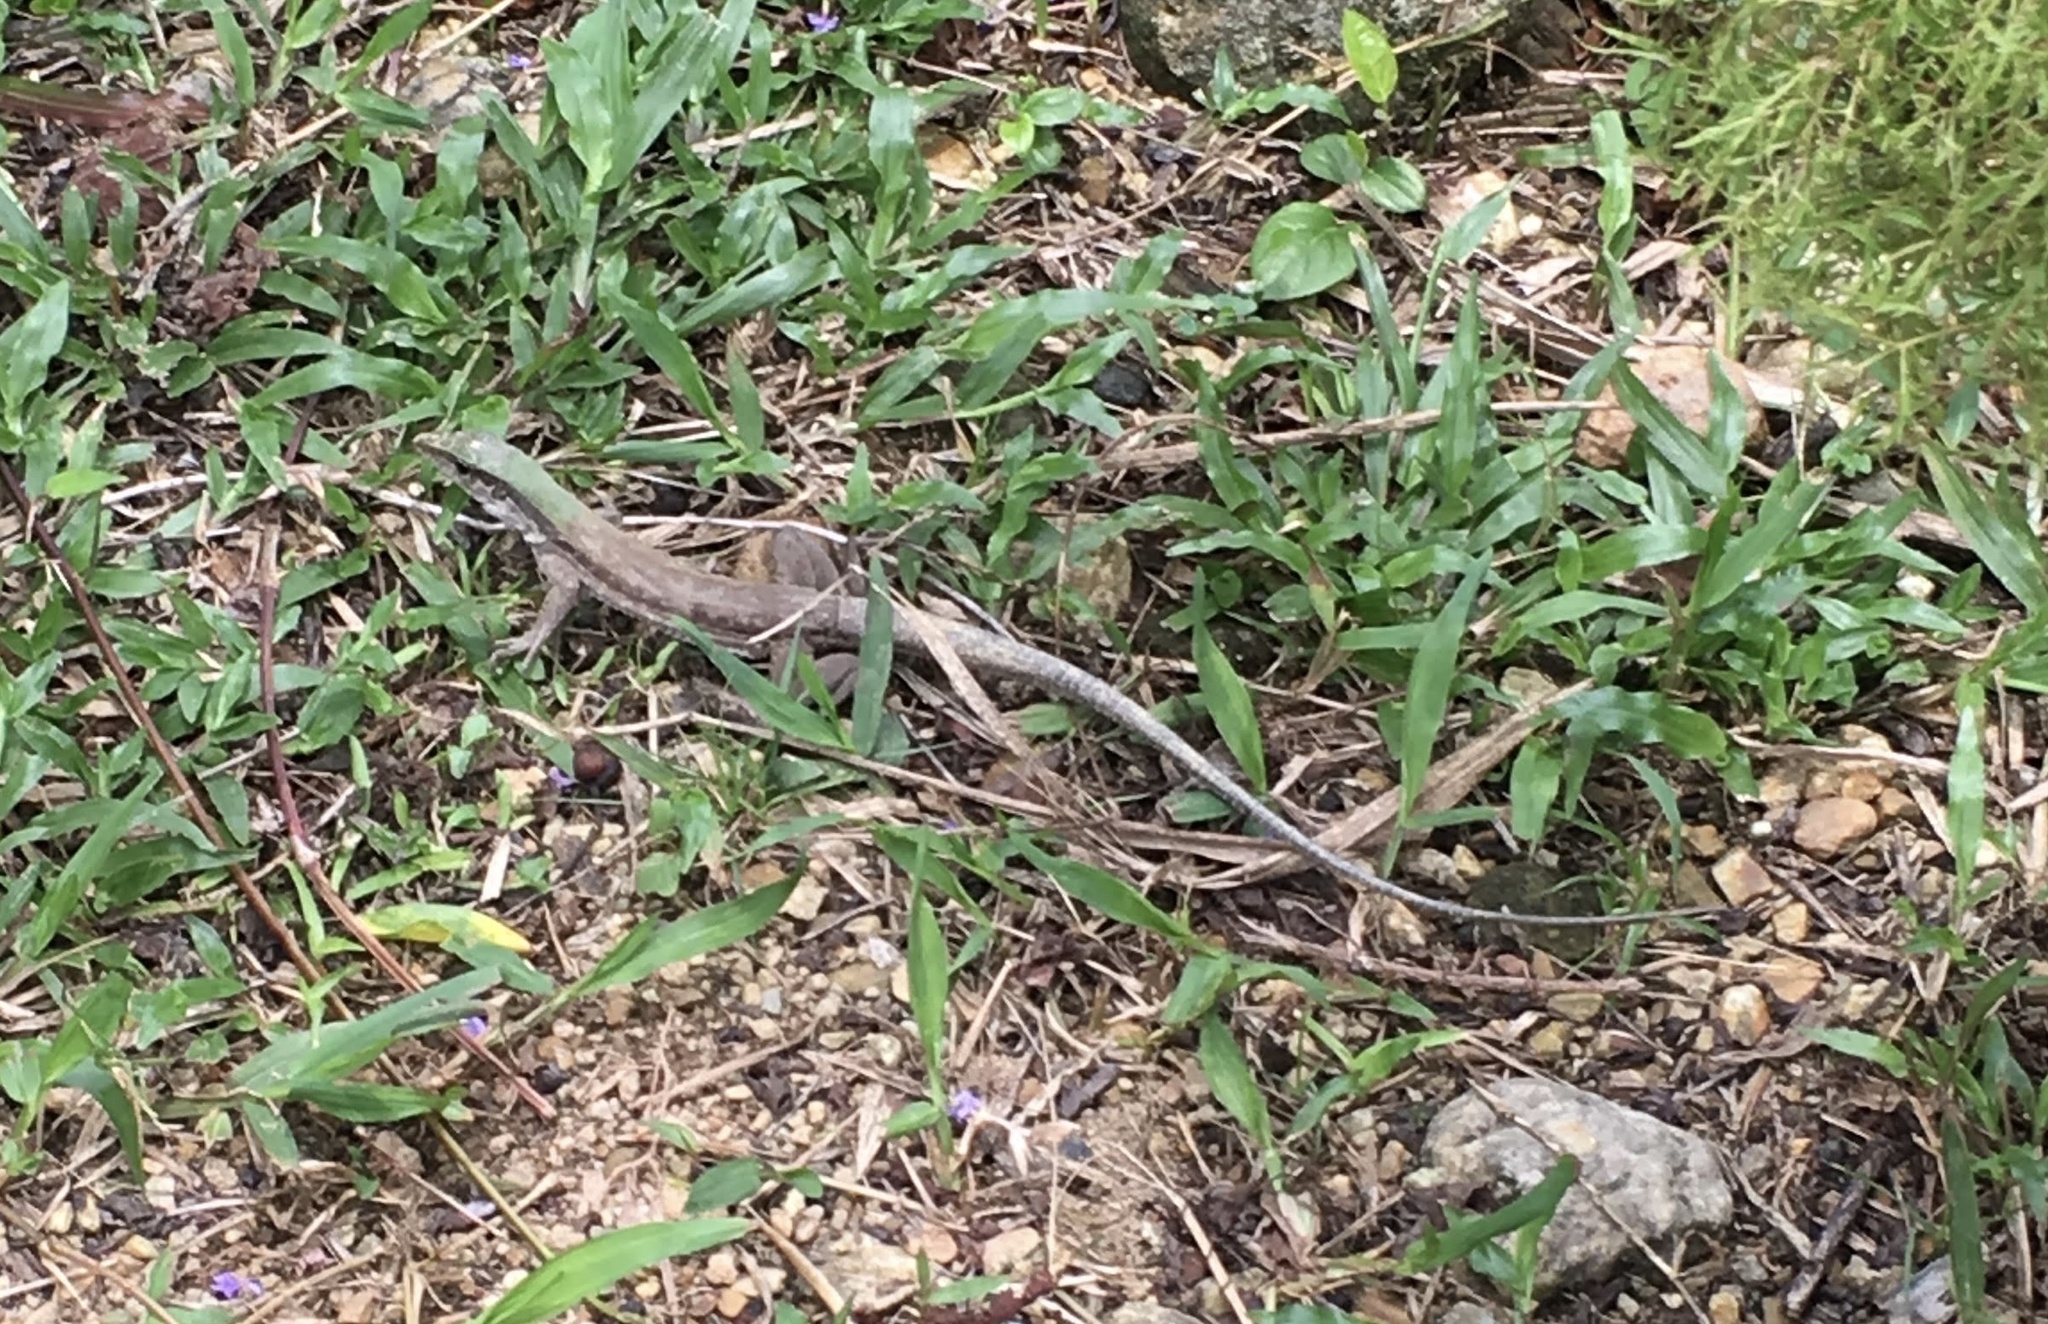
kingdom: Animalia
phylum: Chordata
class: Squamata
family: Teiidae
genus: Ameiva
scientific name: Ameiva atrigularis
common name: Venezuelan ameiva
